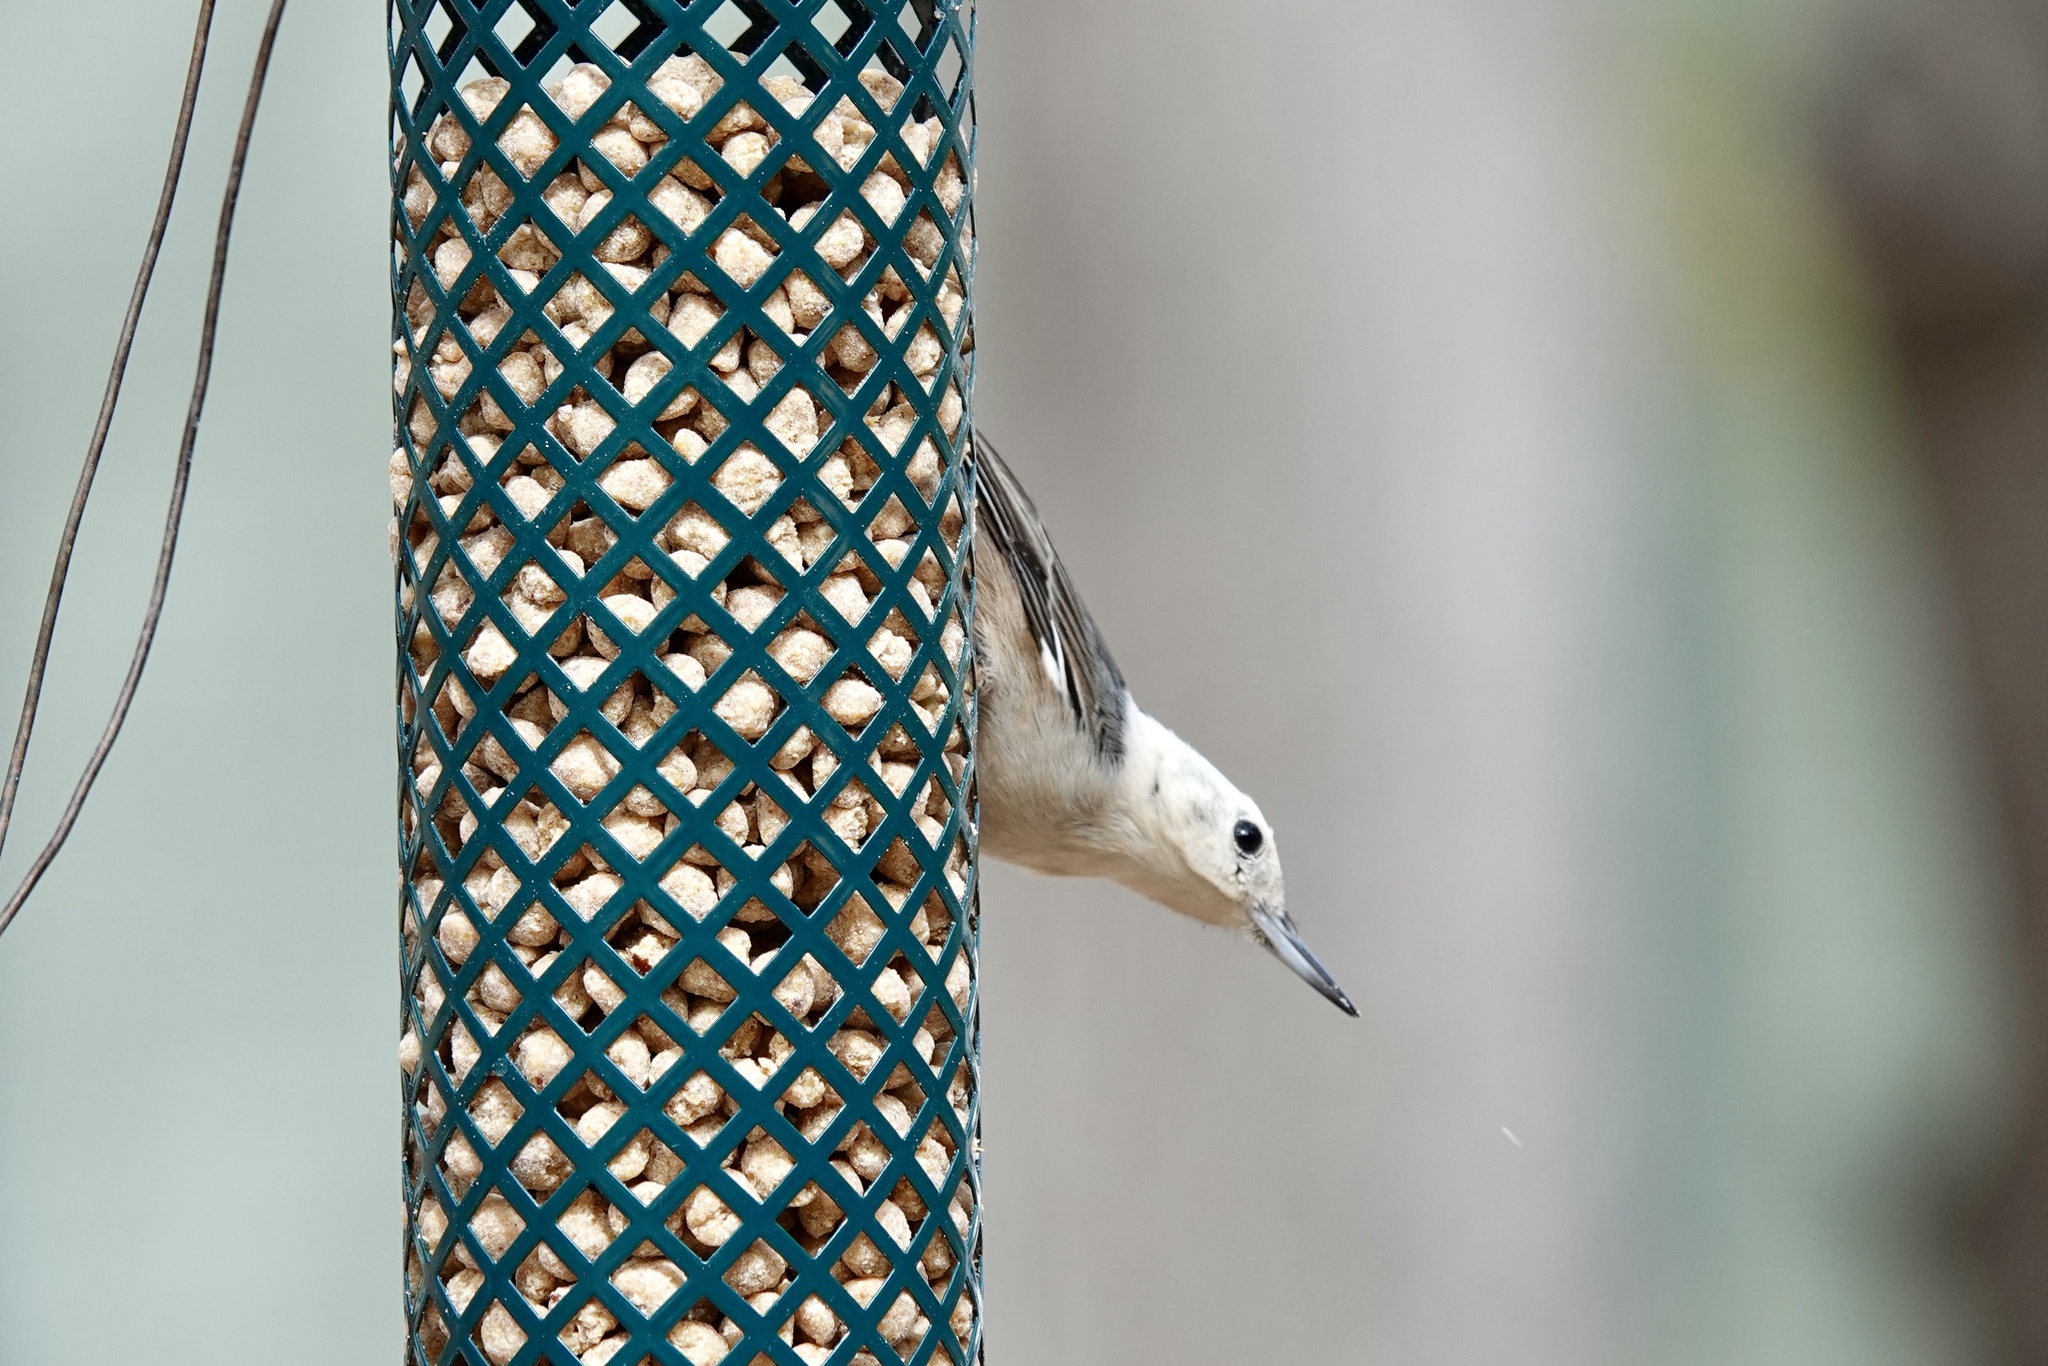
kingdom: Animalia
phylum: Chordata
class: Aves
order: Passeriformes
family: Sittidae
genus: Sitta
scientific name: Sitta carolinensis
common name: White-breasted nuthatch
